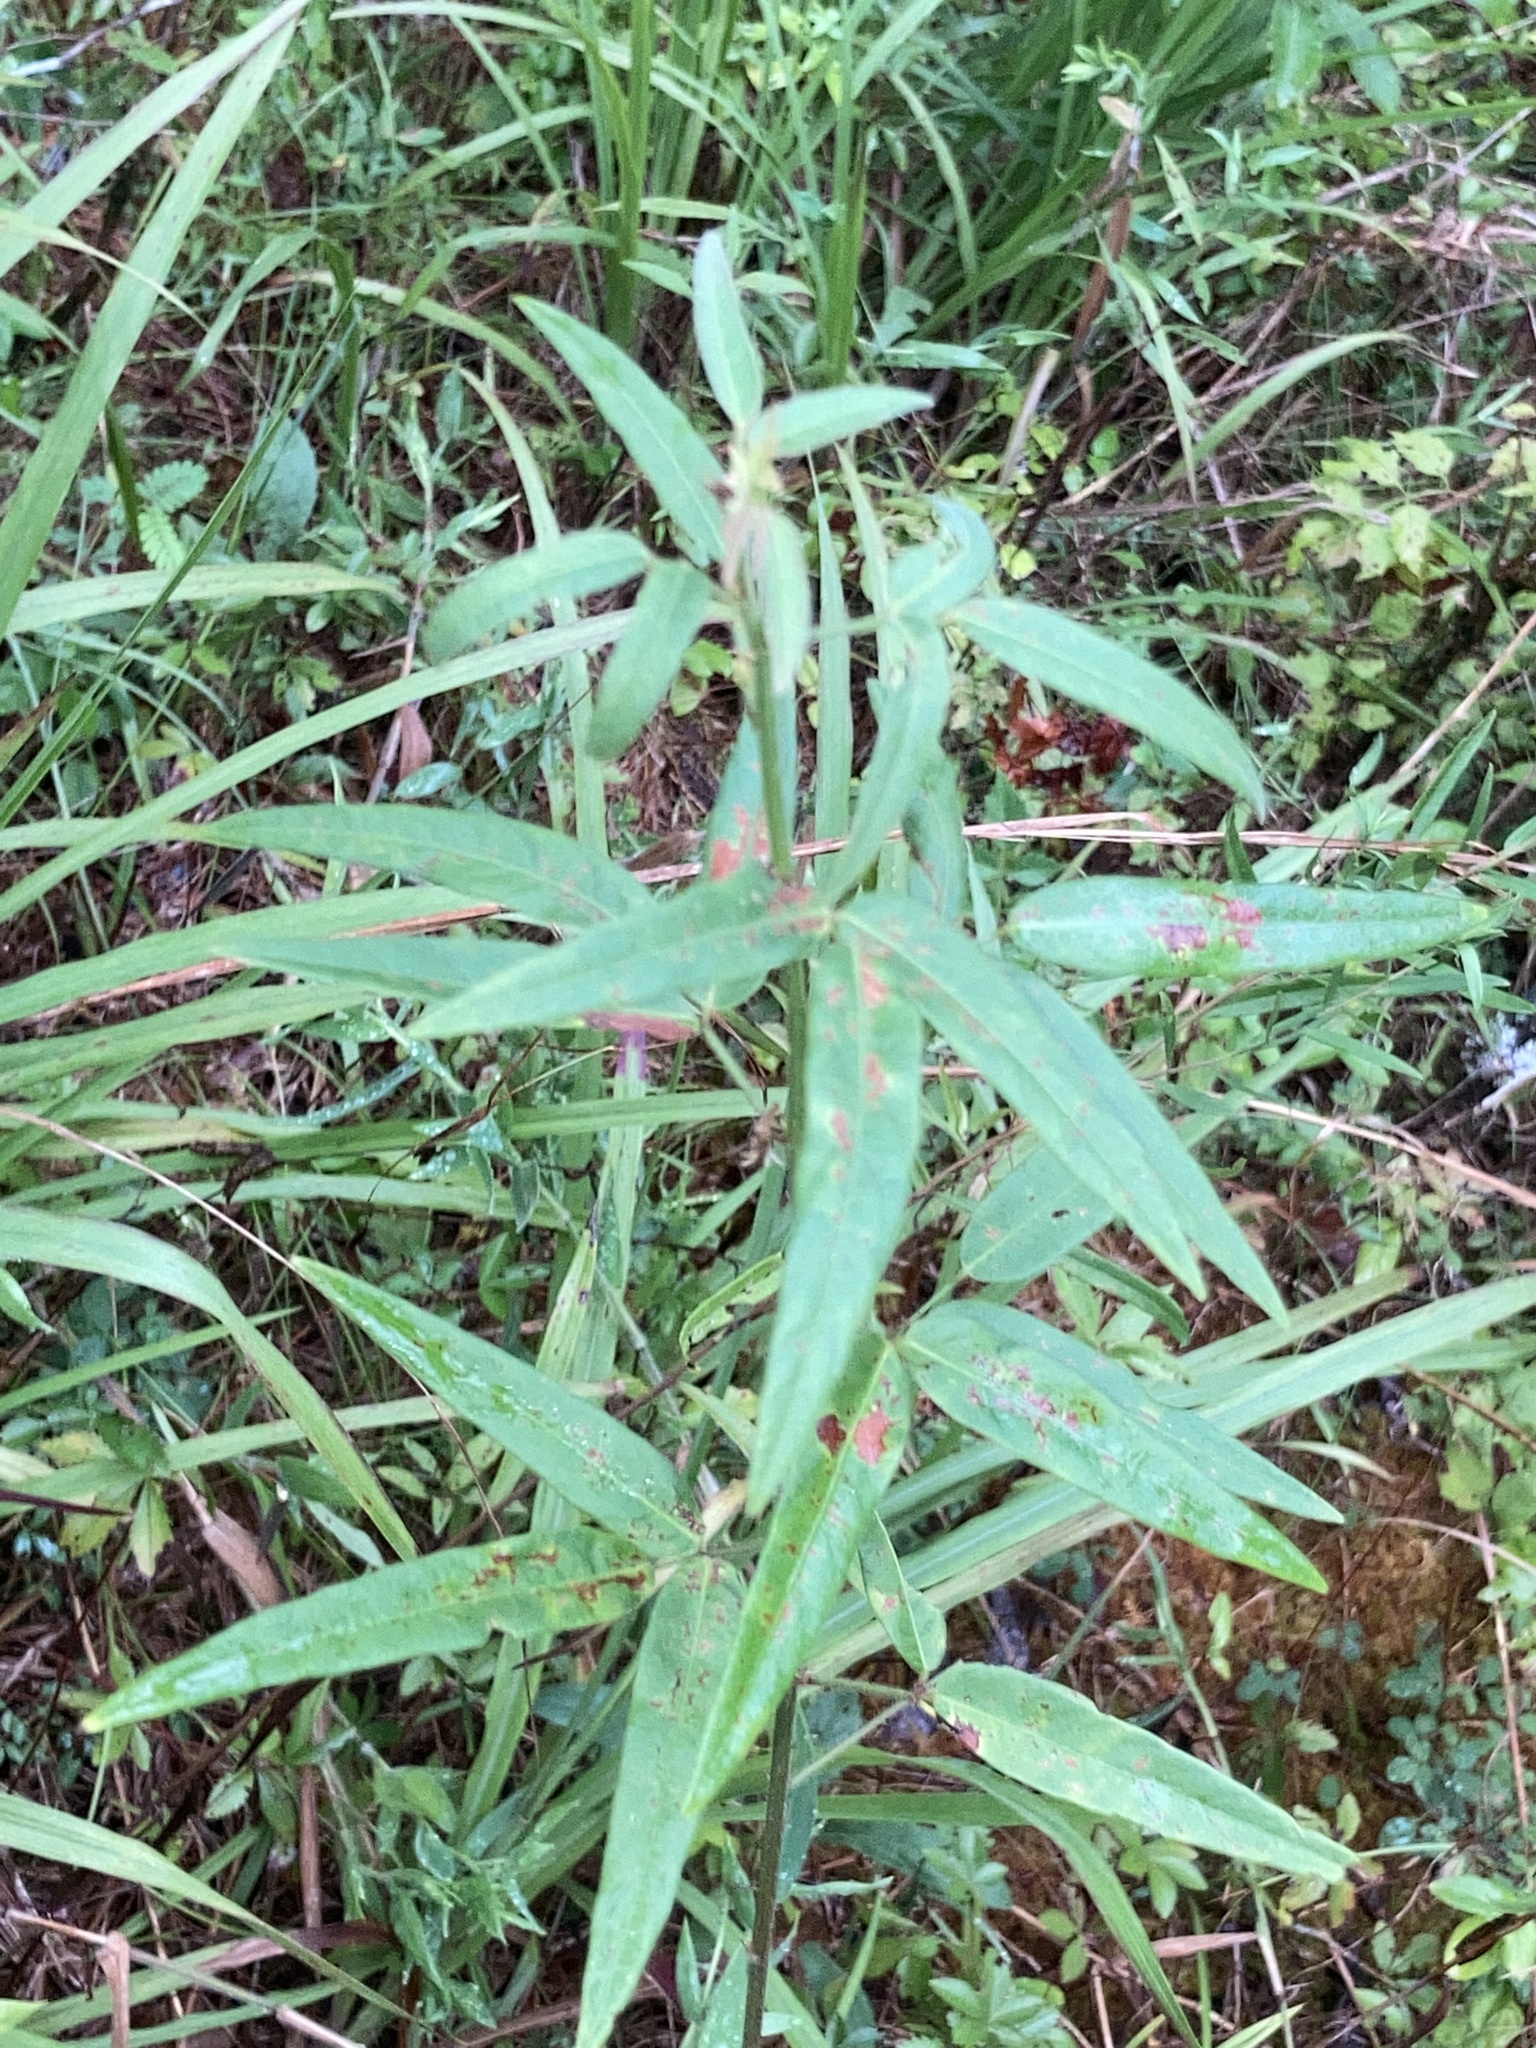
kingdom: Plantae
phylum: Tracheophyta
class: Magnoliopsida
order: Fabales
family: Fabaceae
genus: Desmodium
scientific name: Desmodium paniculatum
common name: Panicled tick-clover
